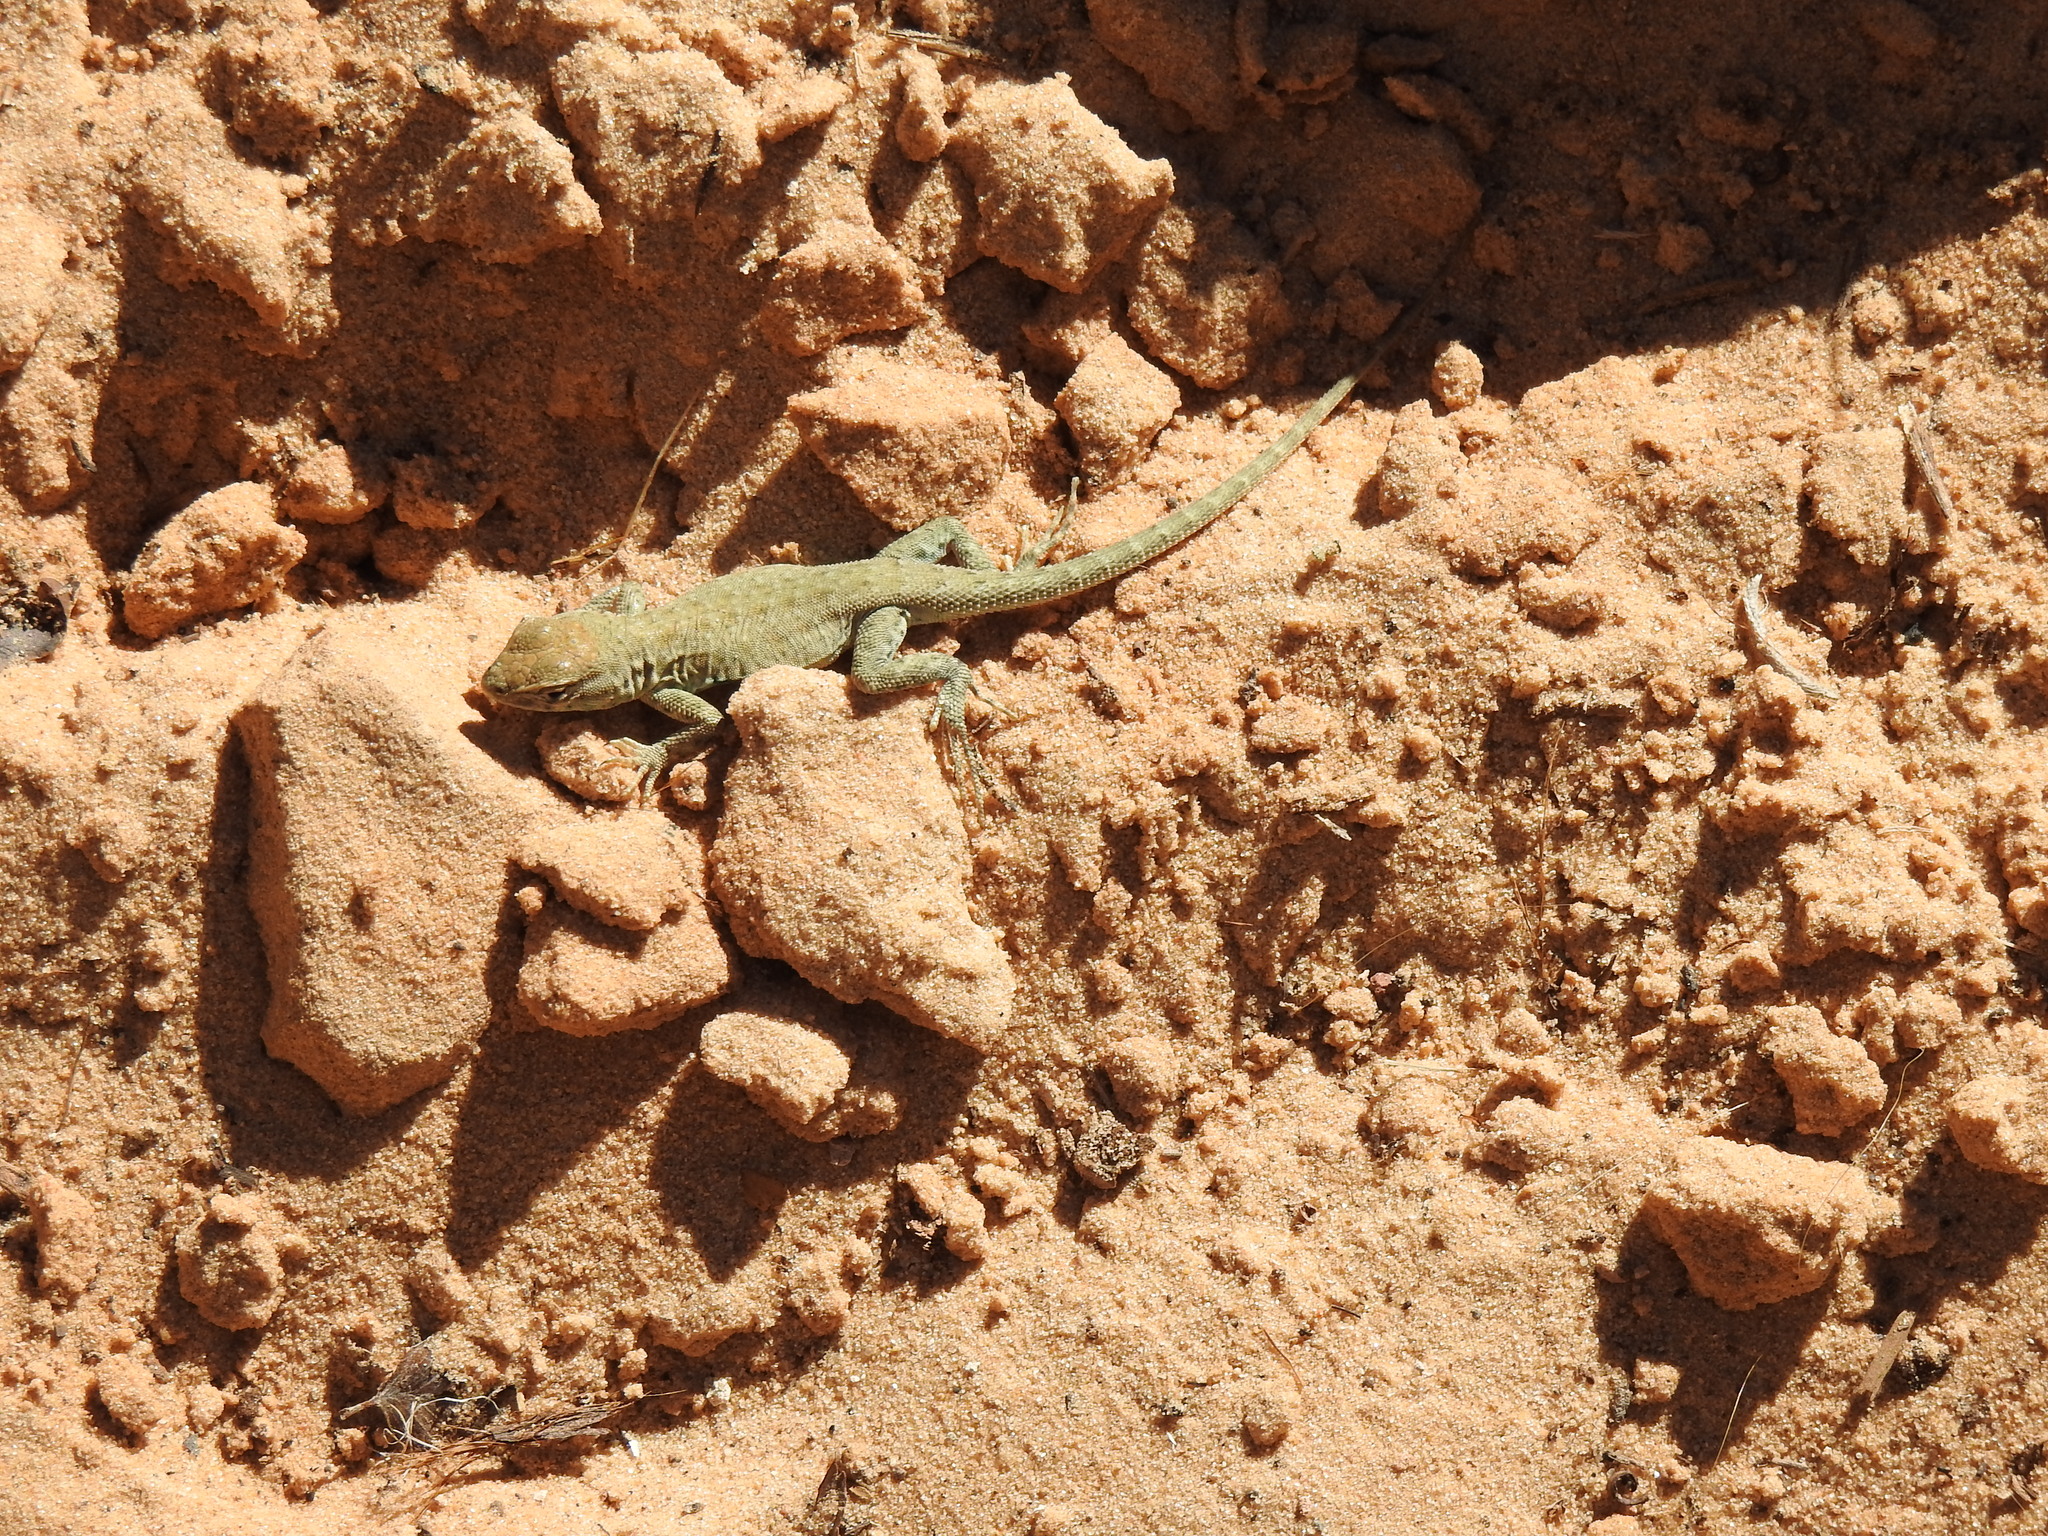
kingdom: Animalia
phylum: Chordata
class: Squamata
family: Phrynosomatidae
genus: Uta
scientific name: Uta stansburiana
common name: Side-blotched lizard
